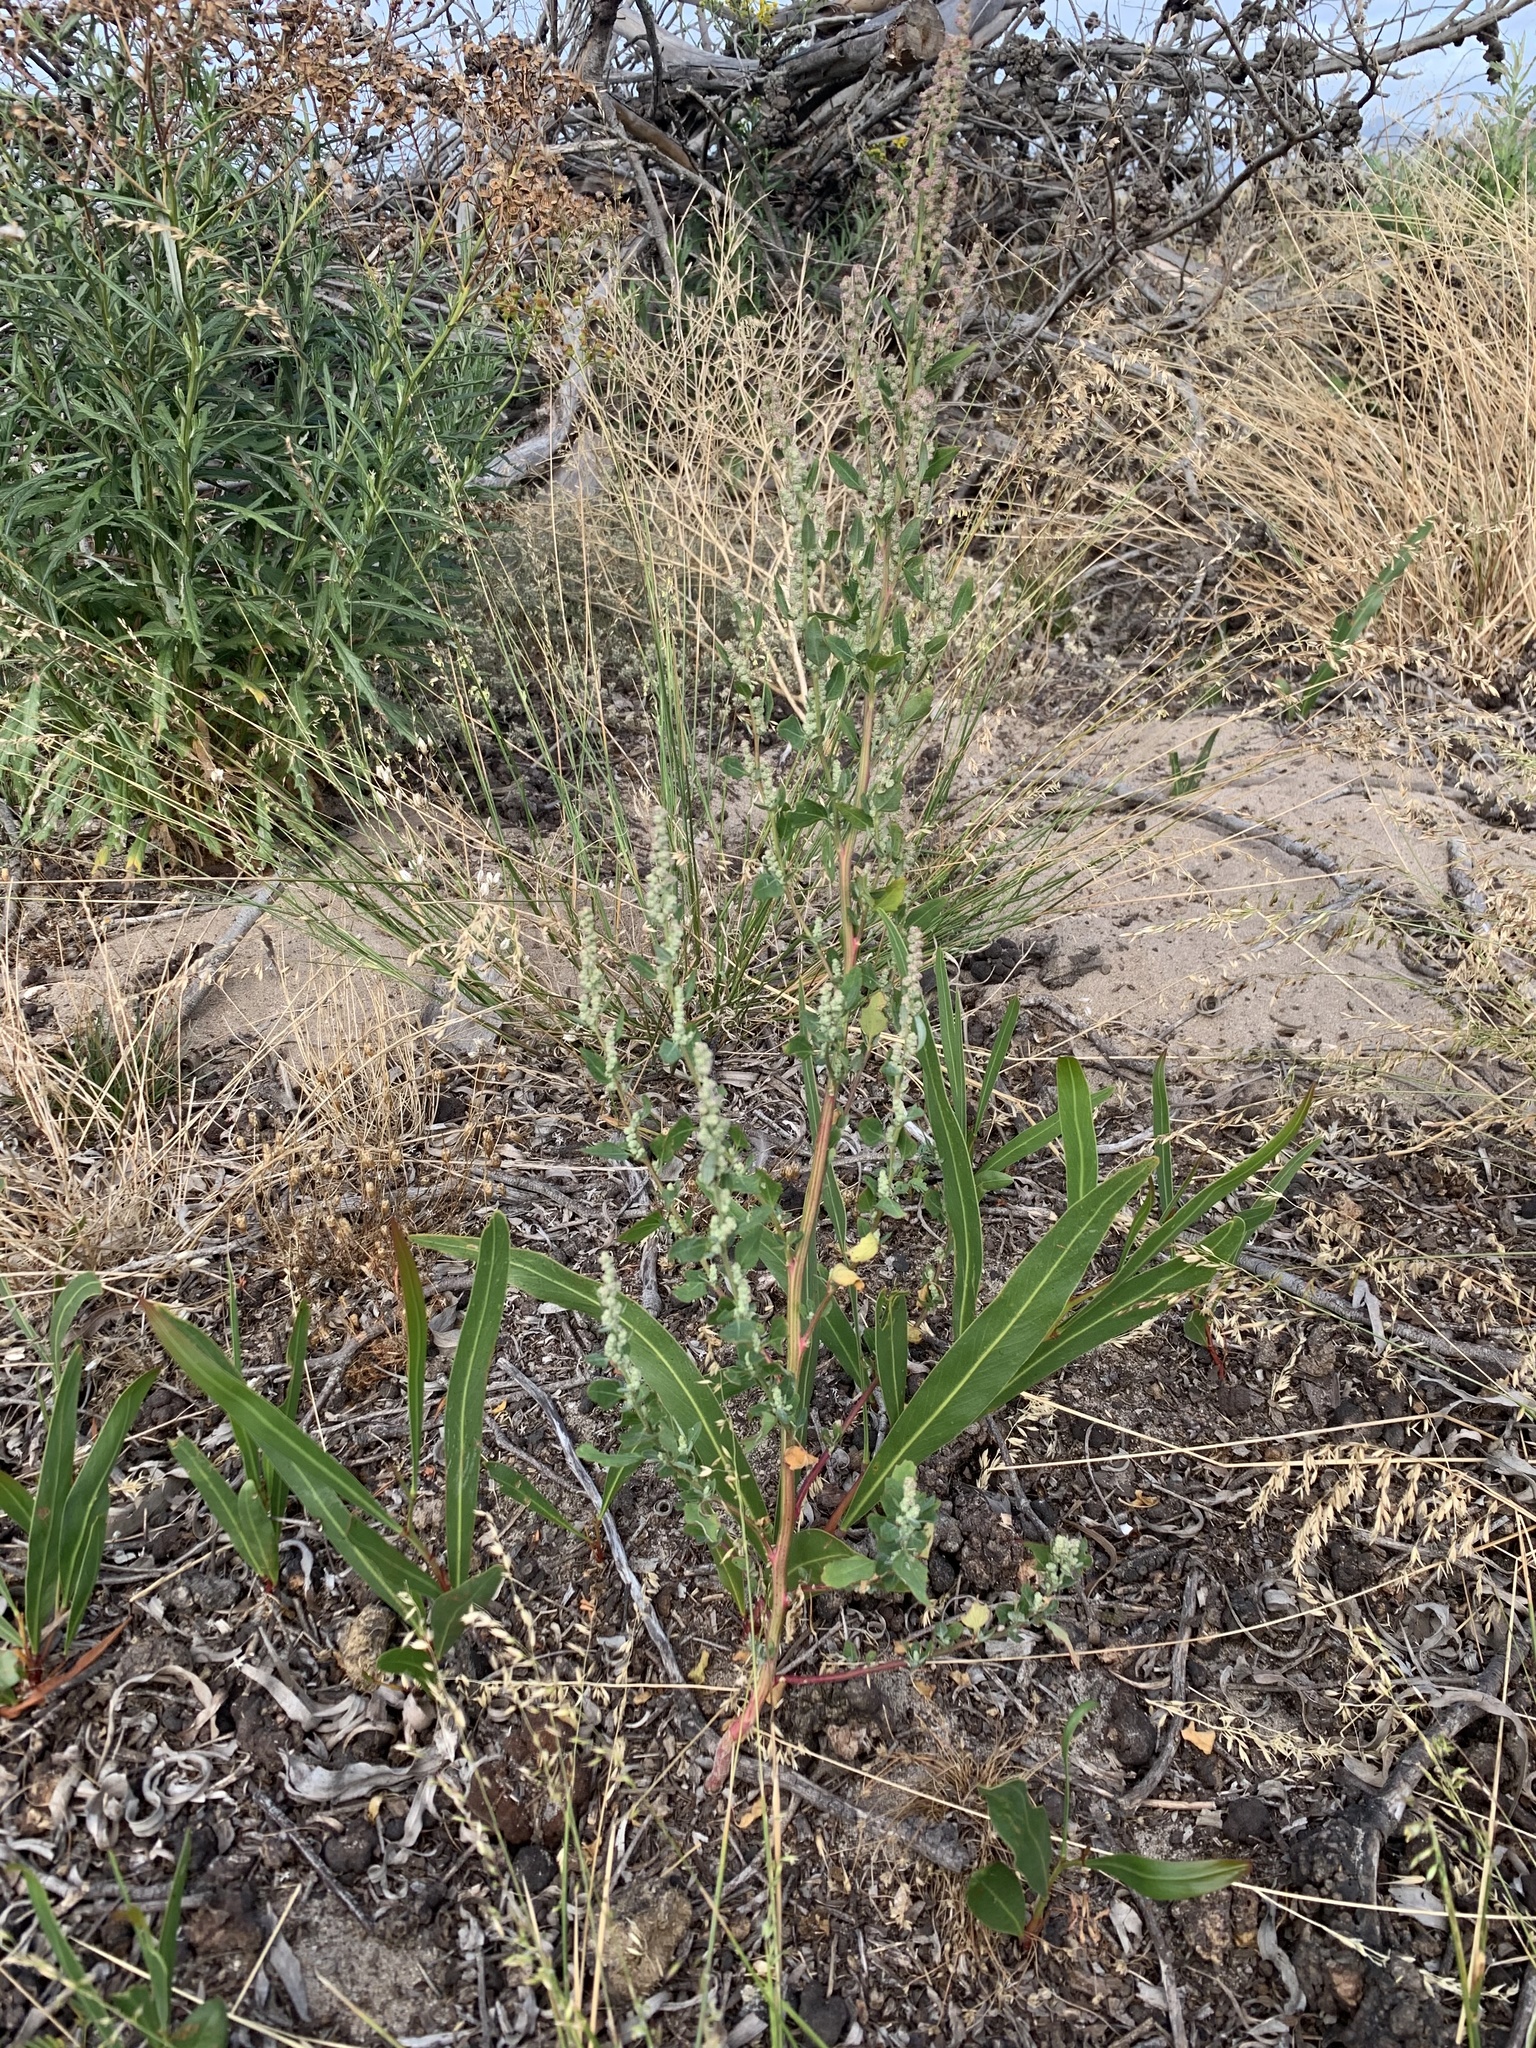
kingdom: Plantae
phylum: Tracheophyta
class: Magnoliopsida
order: Caryophyllales
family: Amaranthaceae
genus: Chenopodium
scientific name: Chenopodium album
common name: Fat-hen
